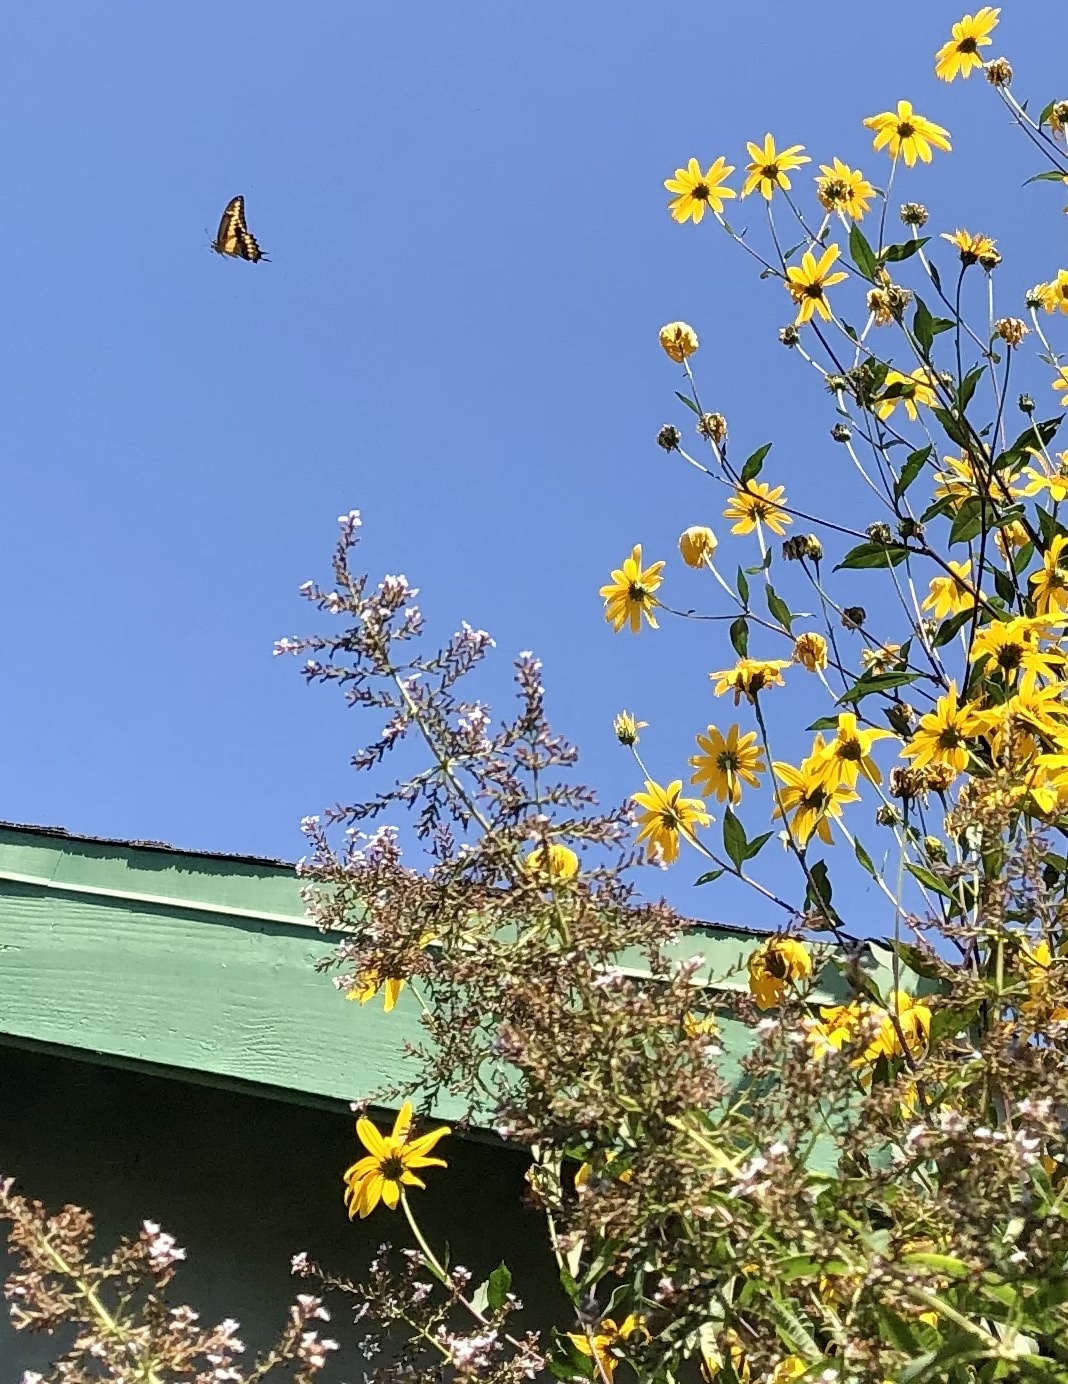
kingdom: Animalia
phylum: Arthropoda
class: Insecta
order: Lepidoptera
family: Papilionidae
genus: Papilio
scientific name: Papilio rumiko
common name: Western giant swallowtail
